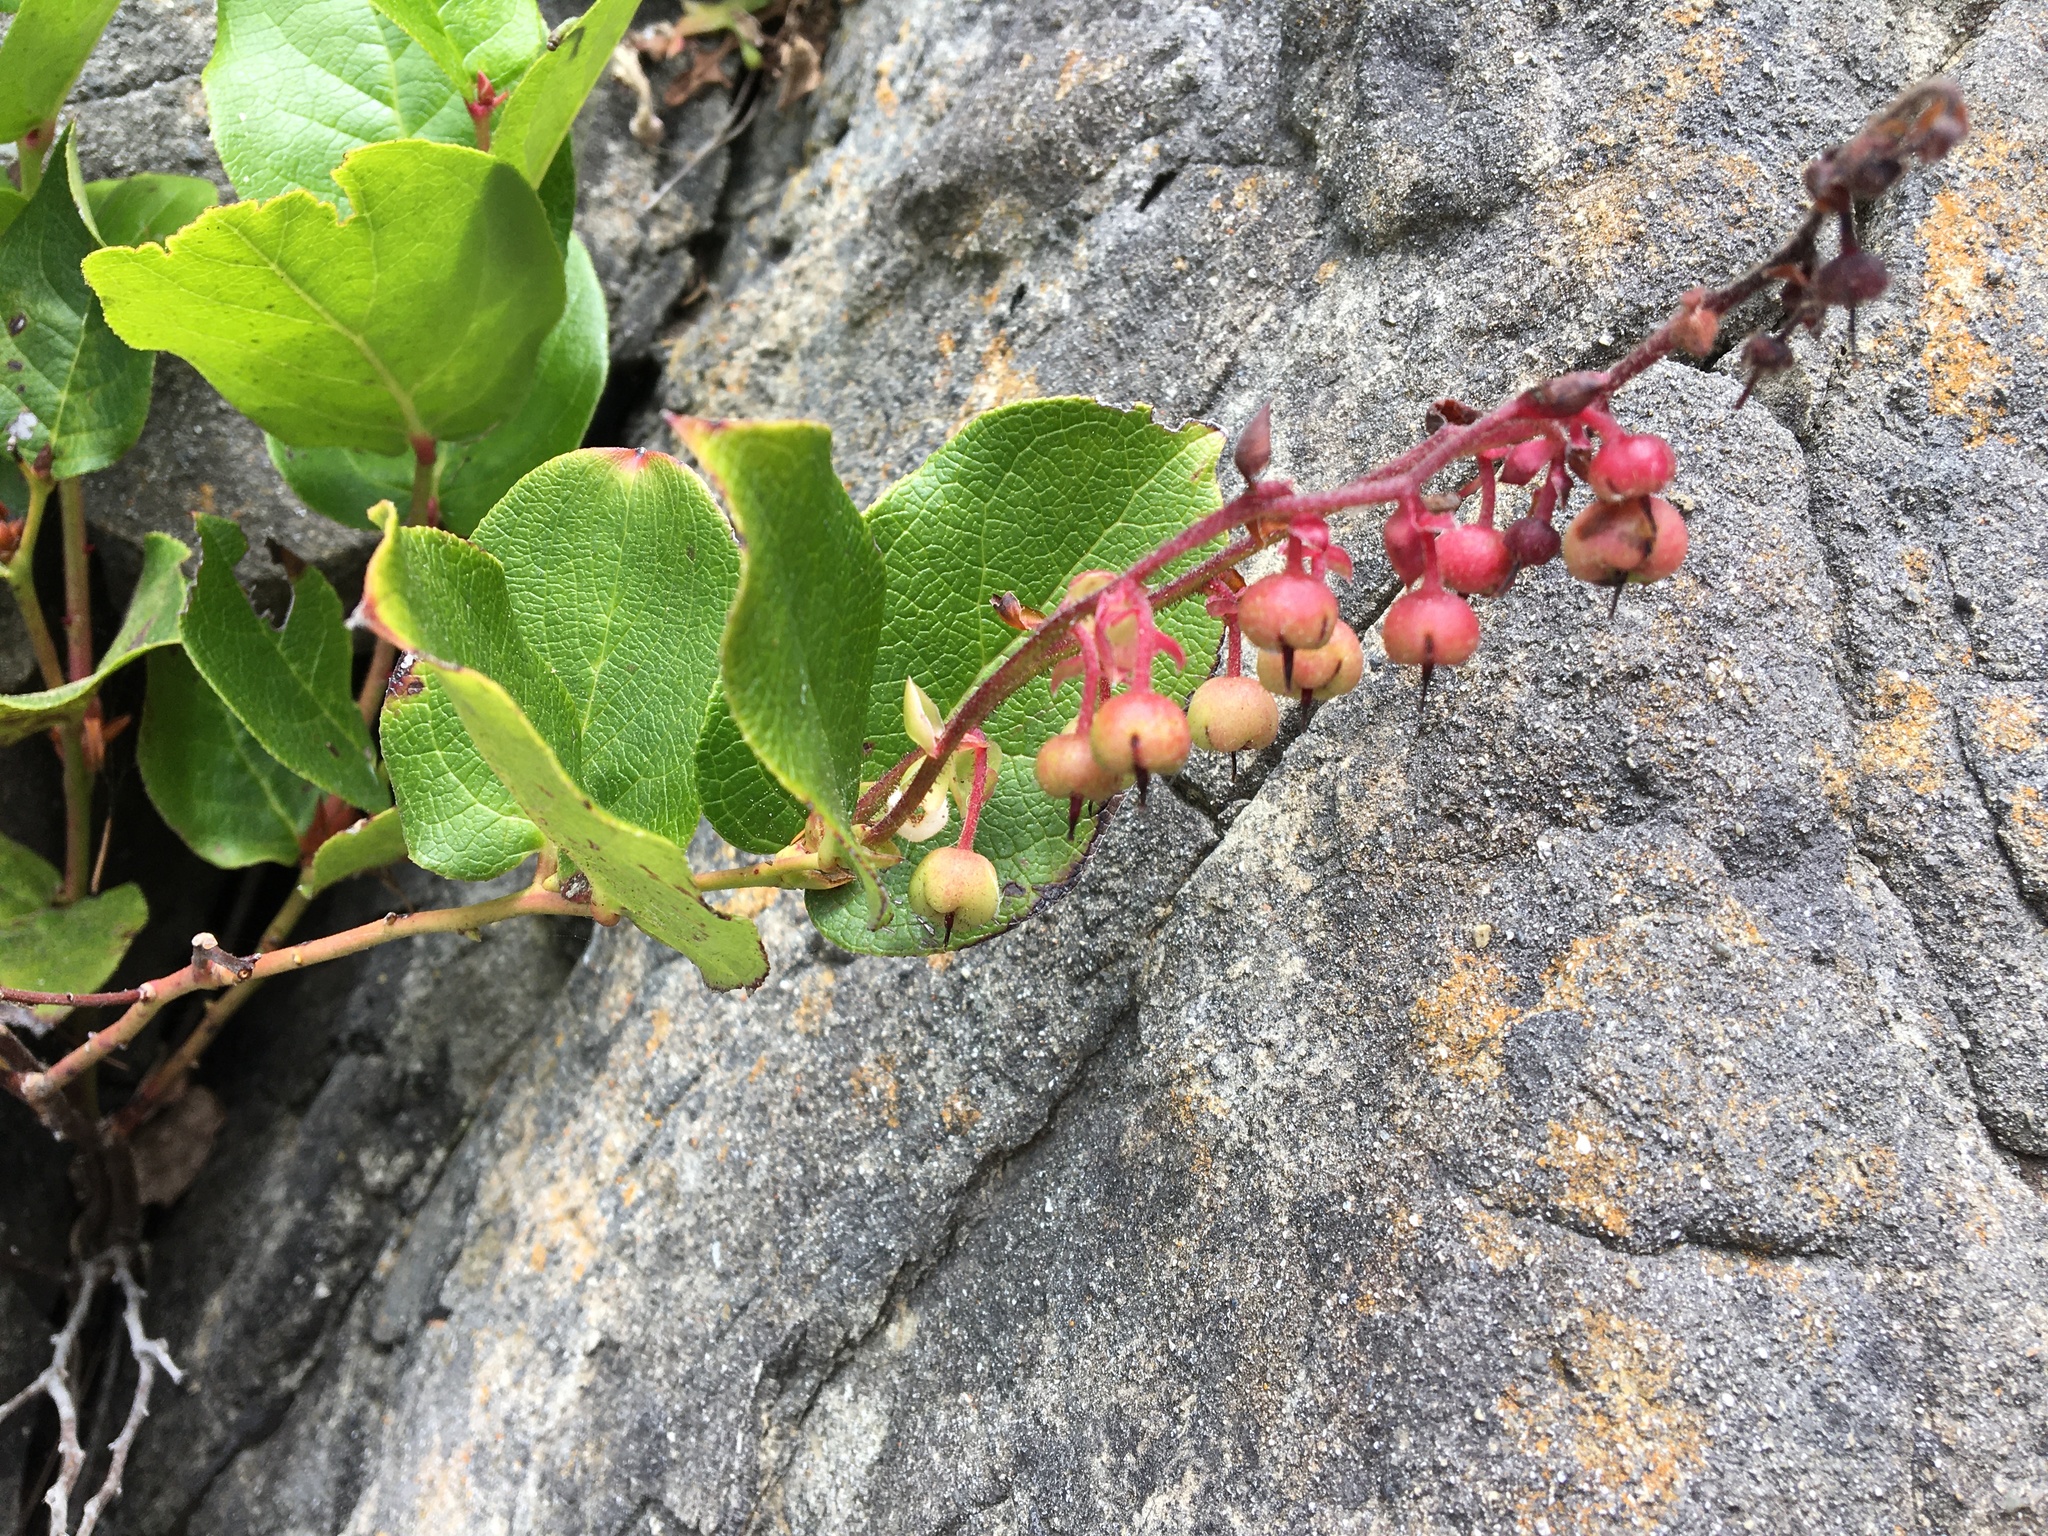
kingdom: Plantae
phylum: Tracheophyta
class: Magnoliopsida
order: Ericales
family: Ericaceae
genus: Gaultheria
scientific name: Gaultheria shallon
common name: Shallon
